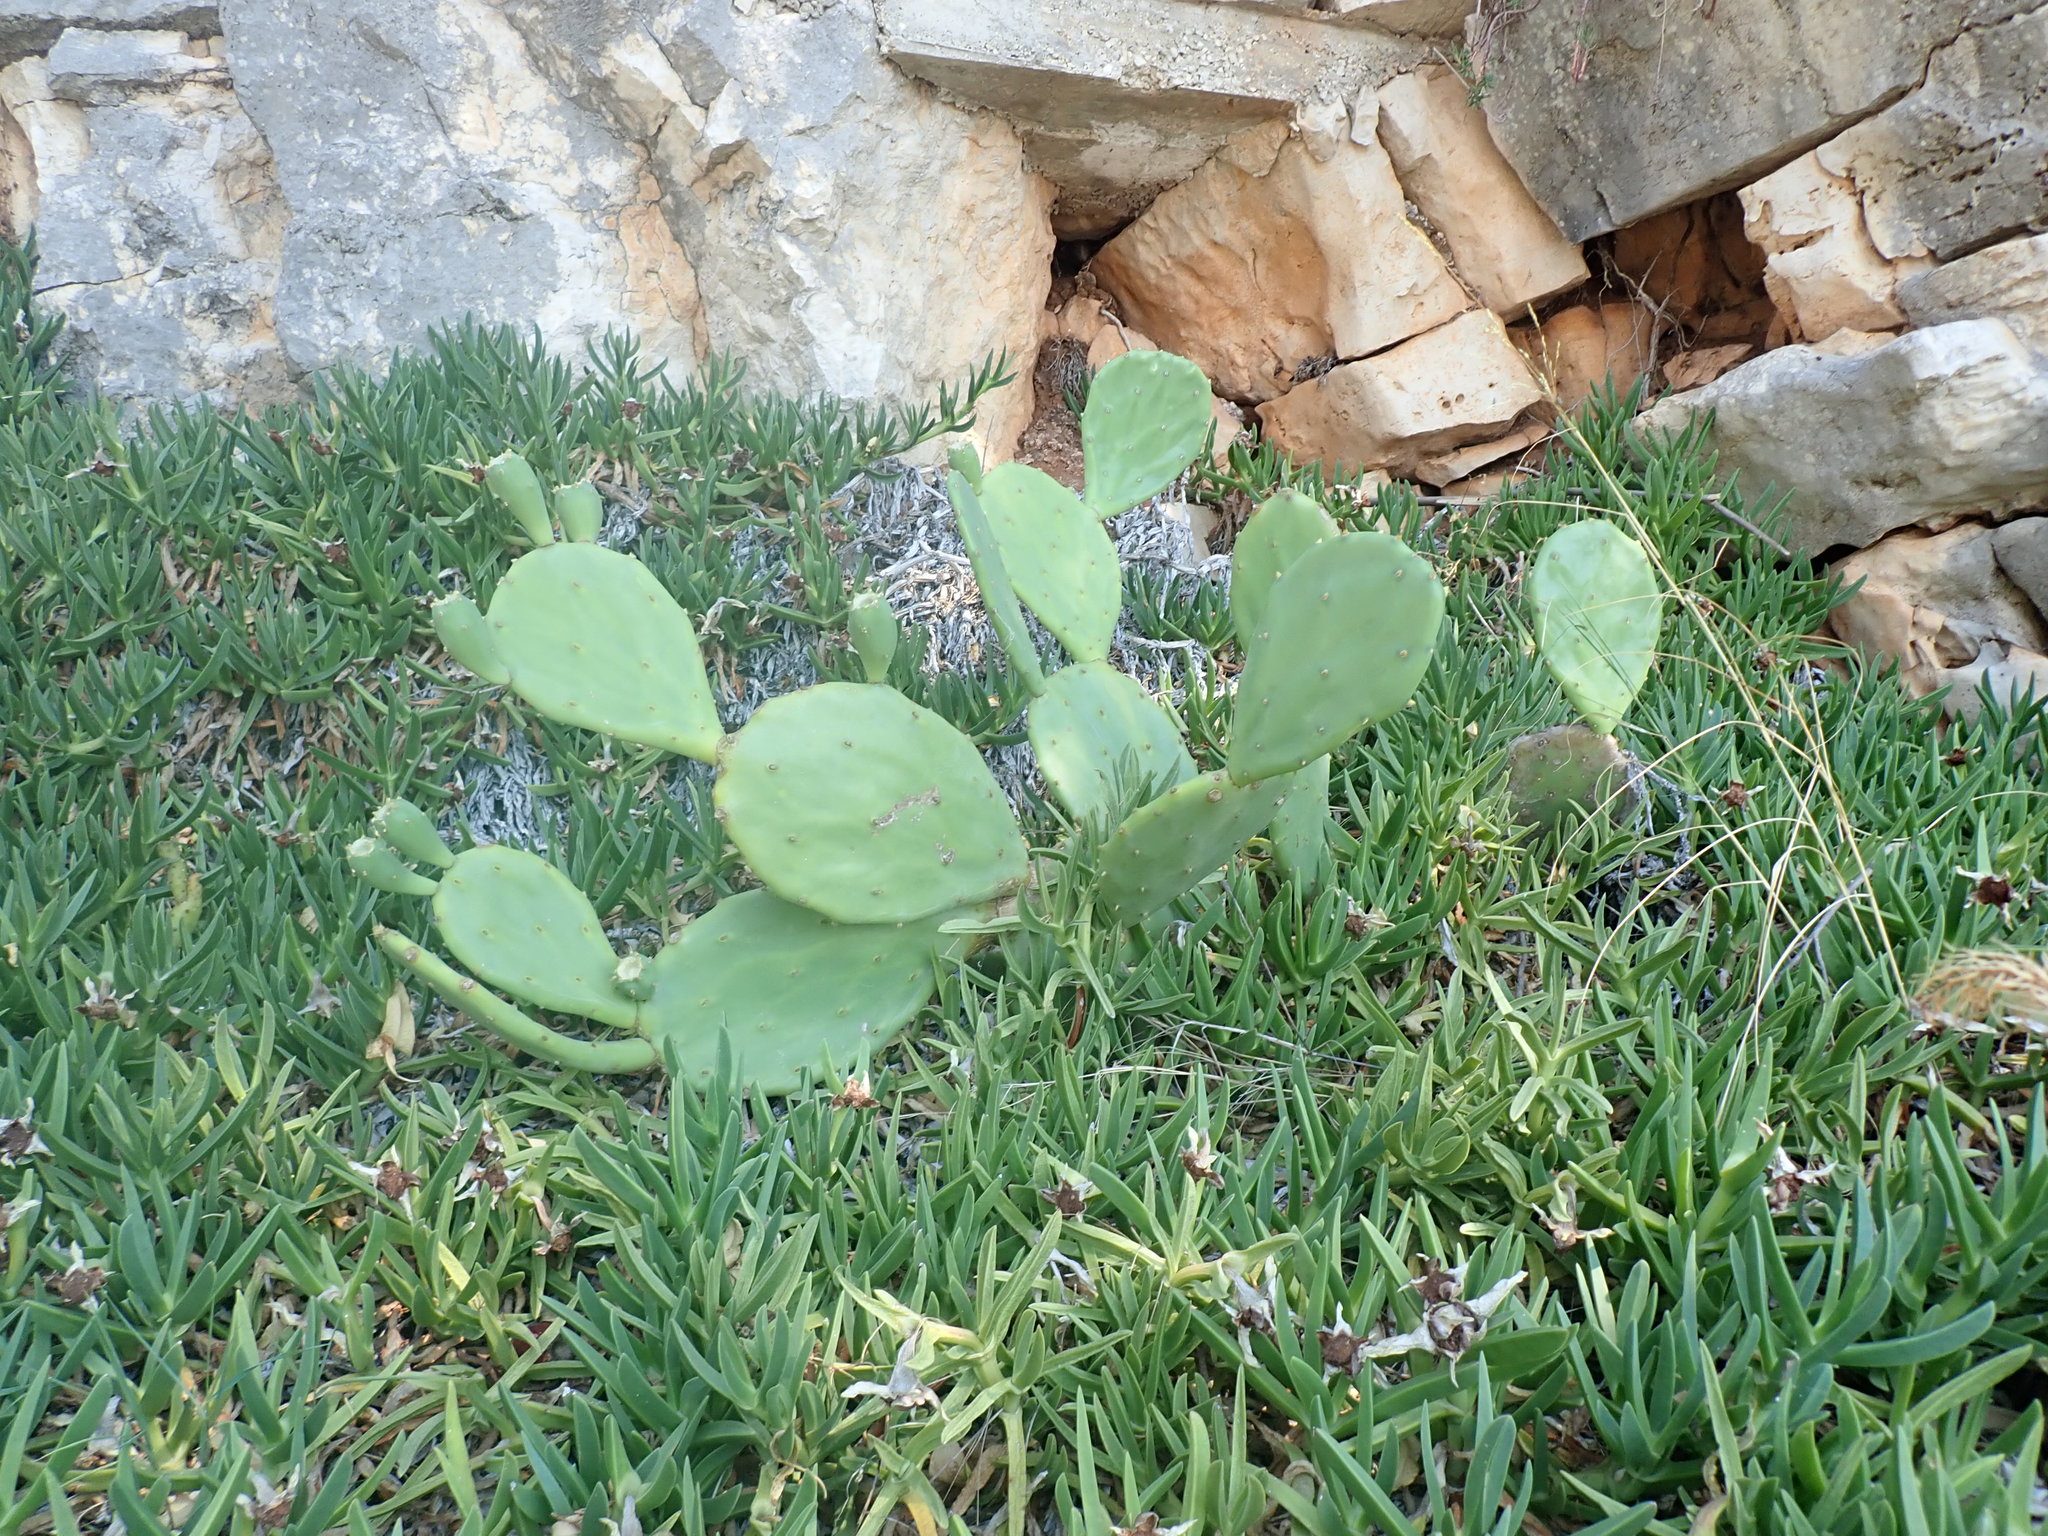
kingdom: Plantae
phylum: Tracheophyta
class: Magnoliopsida
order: Caryophyllales
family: Cactaceae
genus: Opuntia
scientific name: Opuntia anahuacensis
